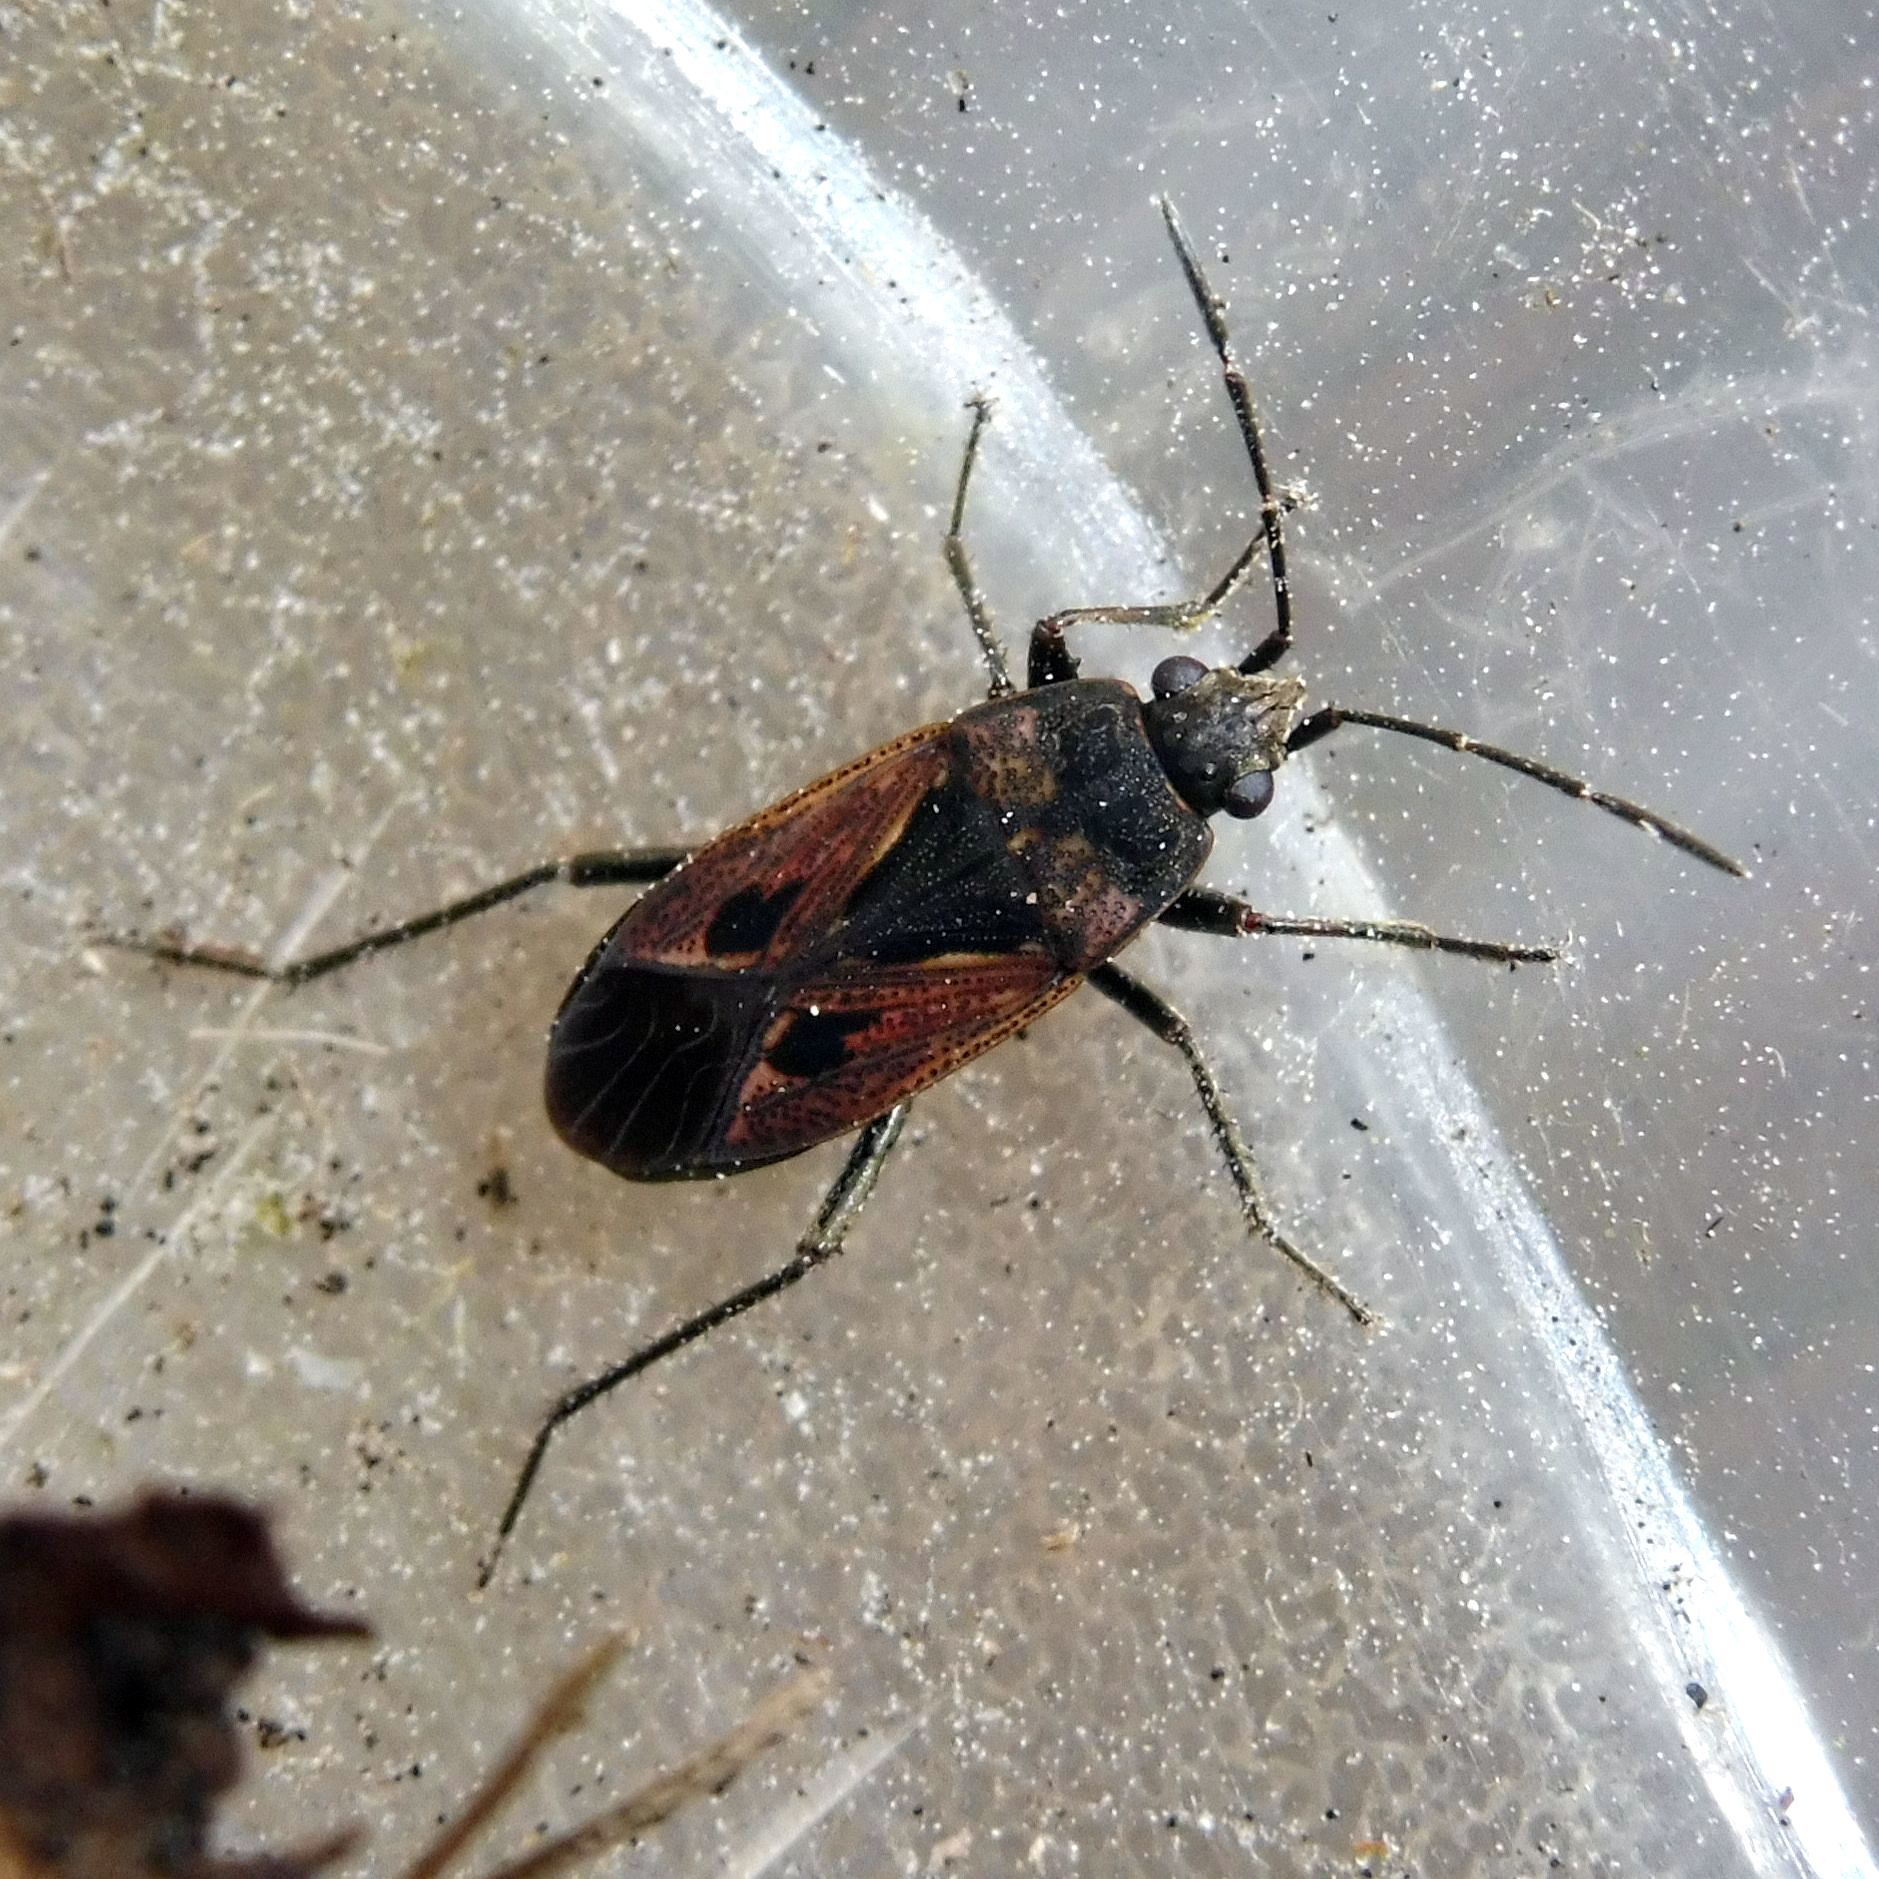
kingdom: Animalia
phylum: Arthropoda
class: Insecta
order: Hemiptera
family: Rhyparochromidae
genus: Rhyparochromus
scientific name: Rhyparochromus pini
